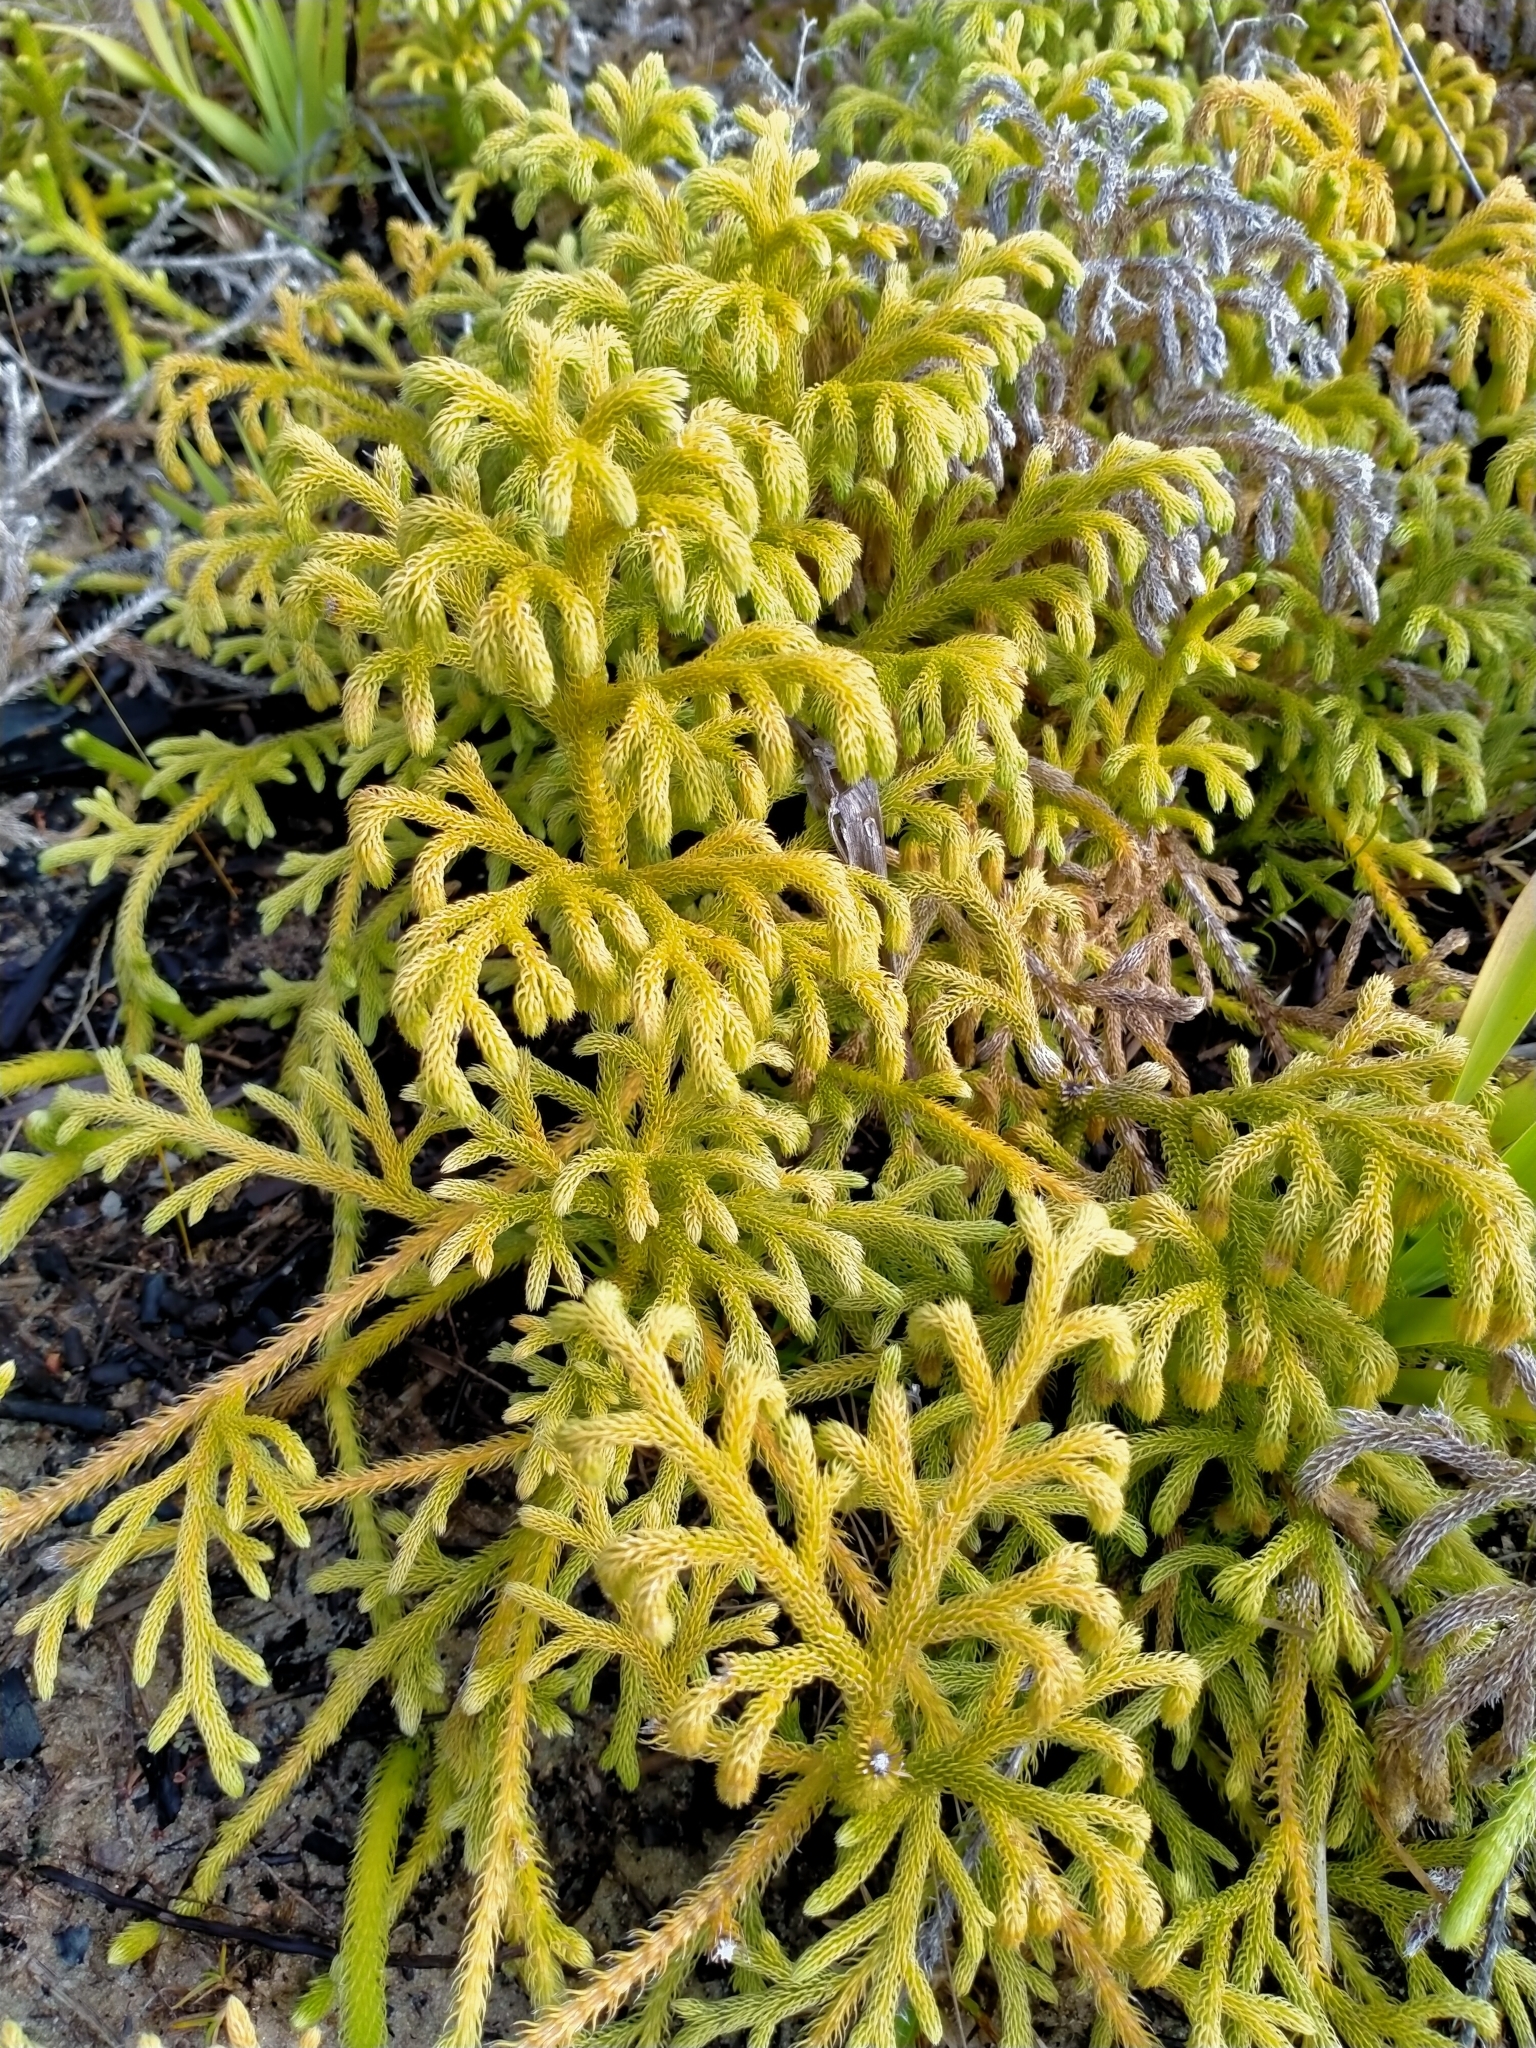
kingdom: Plantae
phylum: Tracheophyta
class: Lycopodiopsida
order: Lycopodiales
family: Lycopodiaceae
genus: Palhinhaea
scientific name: Palhinhaea cernua
